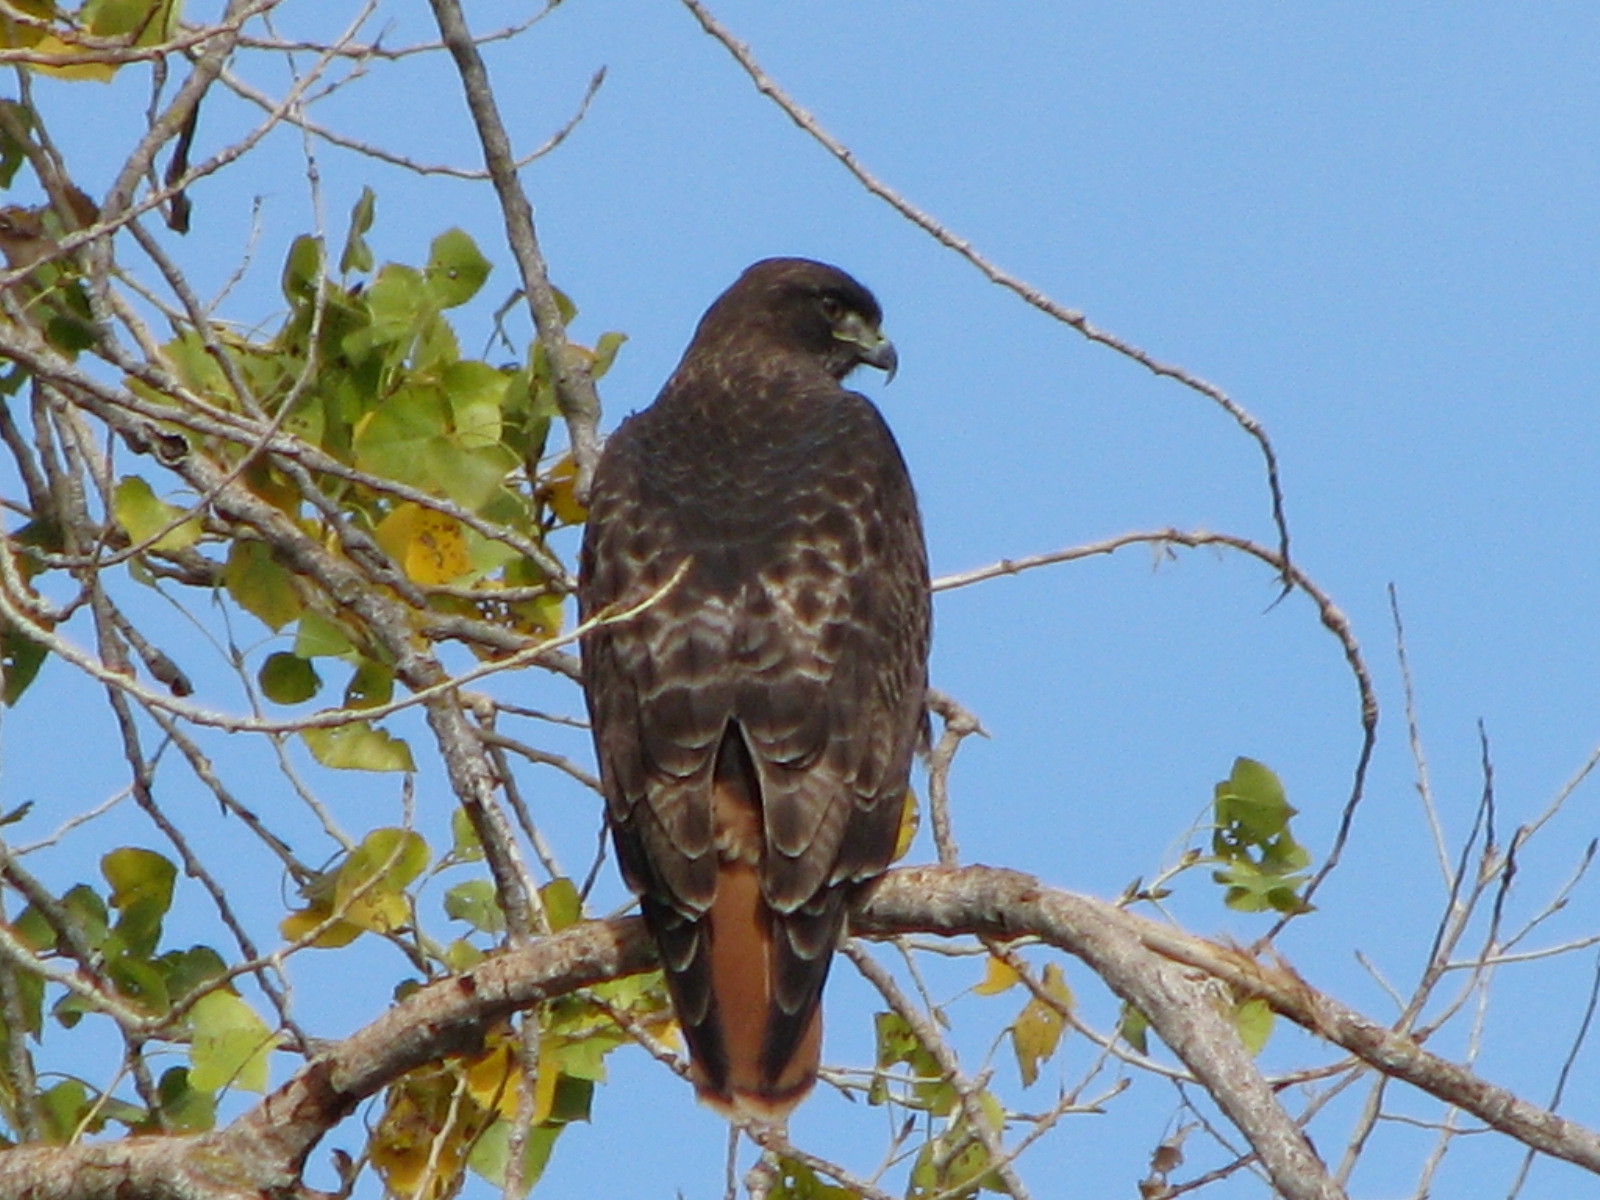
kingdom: Animalia
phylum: Chordata
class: Aves
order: Accipitriformes
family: Accipitridae
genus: Buteo
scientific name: Buteo jamaicensis
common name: Red-tailed hawk
